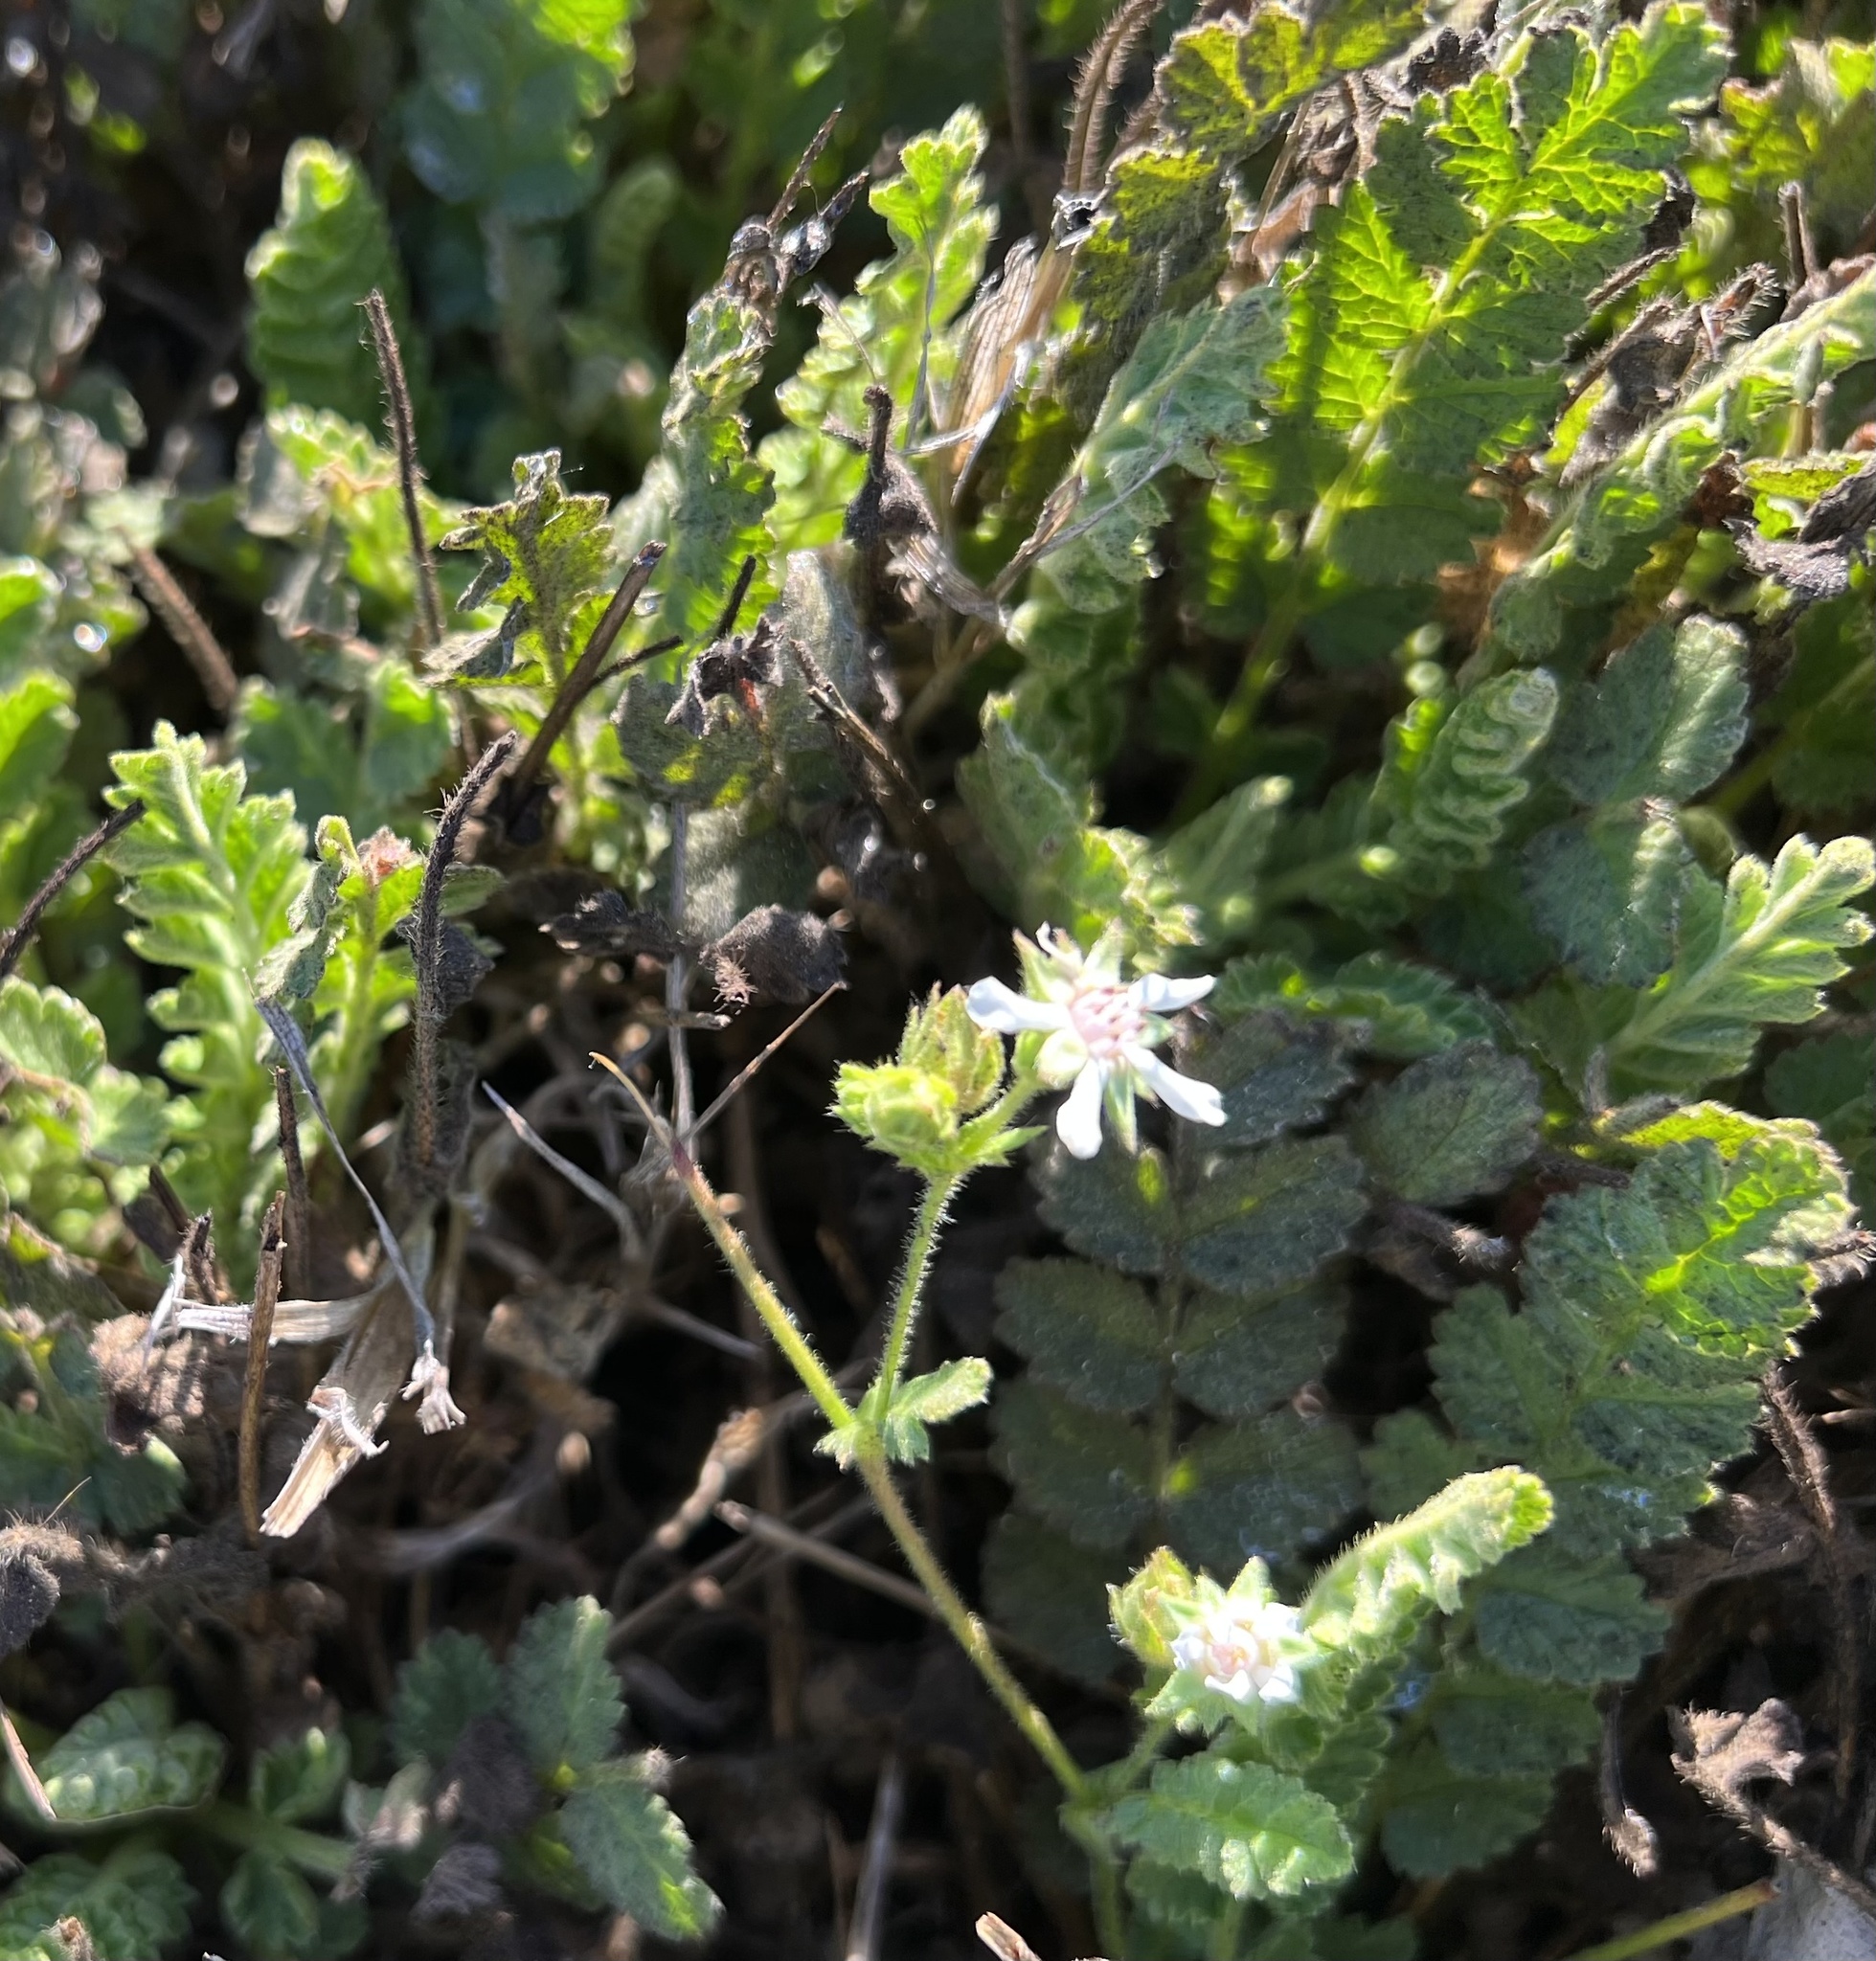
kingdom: Plantae
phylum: Tracheophyta
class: Magnoliopsida
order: Rosales
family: Rosaceae
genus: Potentilla
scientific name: Potentilla lindleyi
